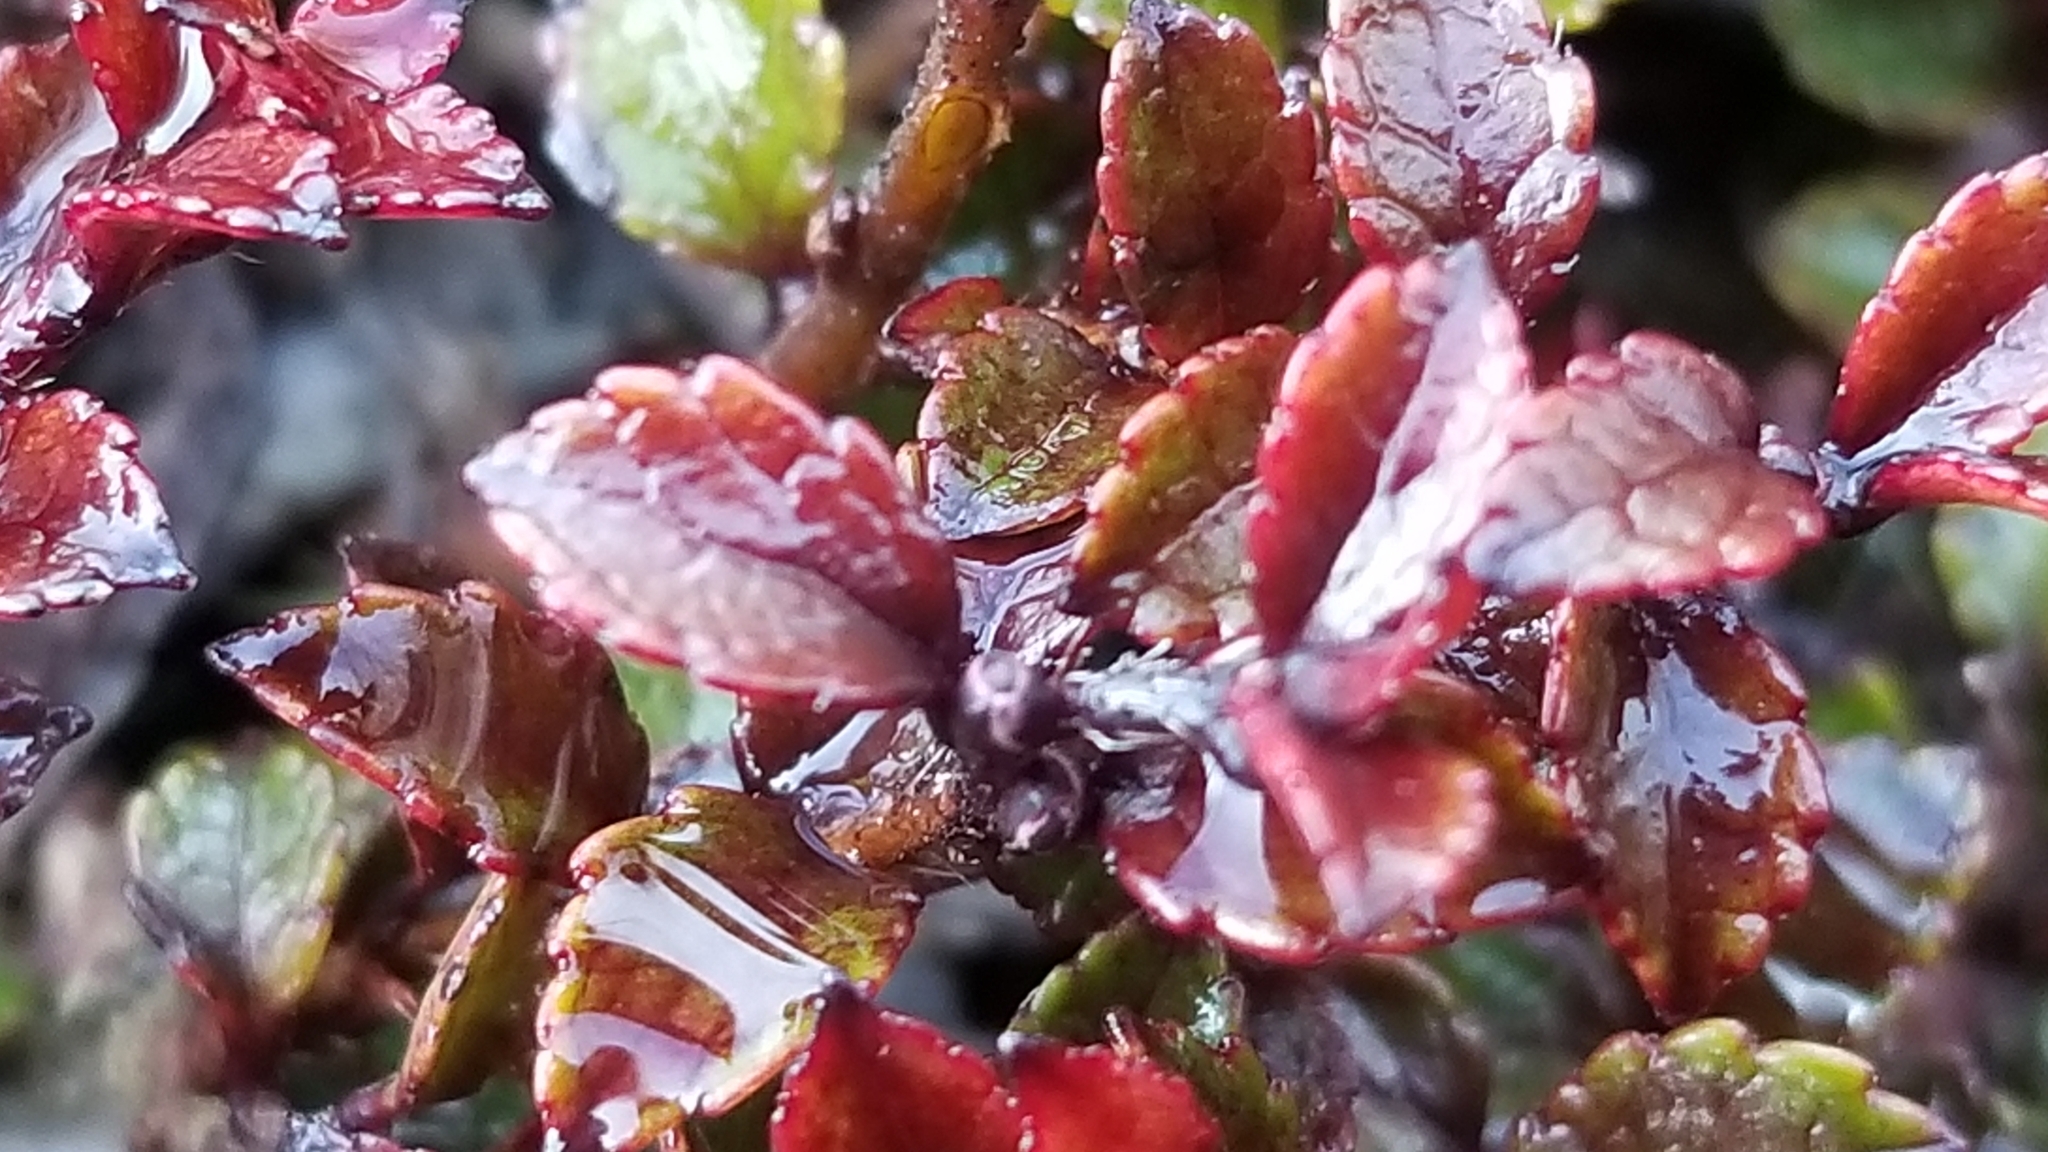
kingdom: Plantae
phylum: Tracheophyta
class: Magnoliopsida
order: Ericales
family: Ericaceae
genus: Gaultheria
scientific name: Gaultheria depressa
